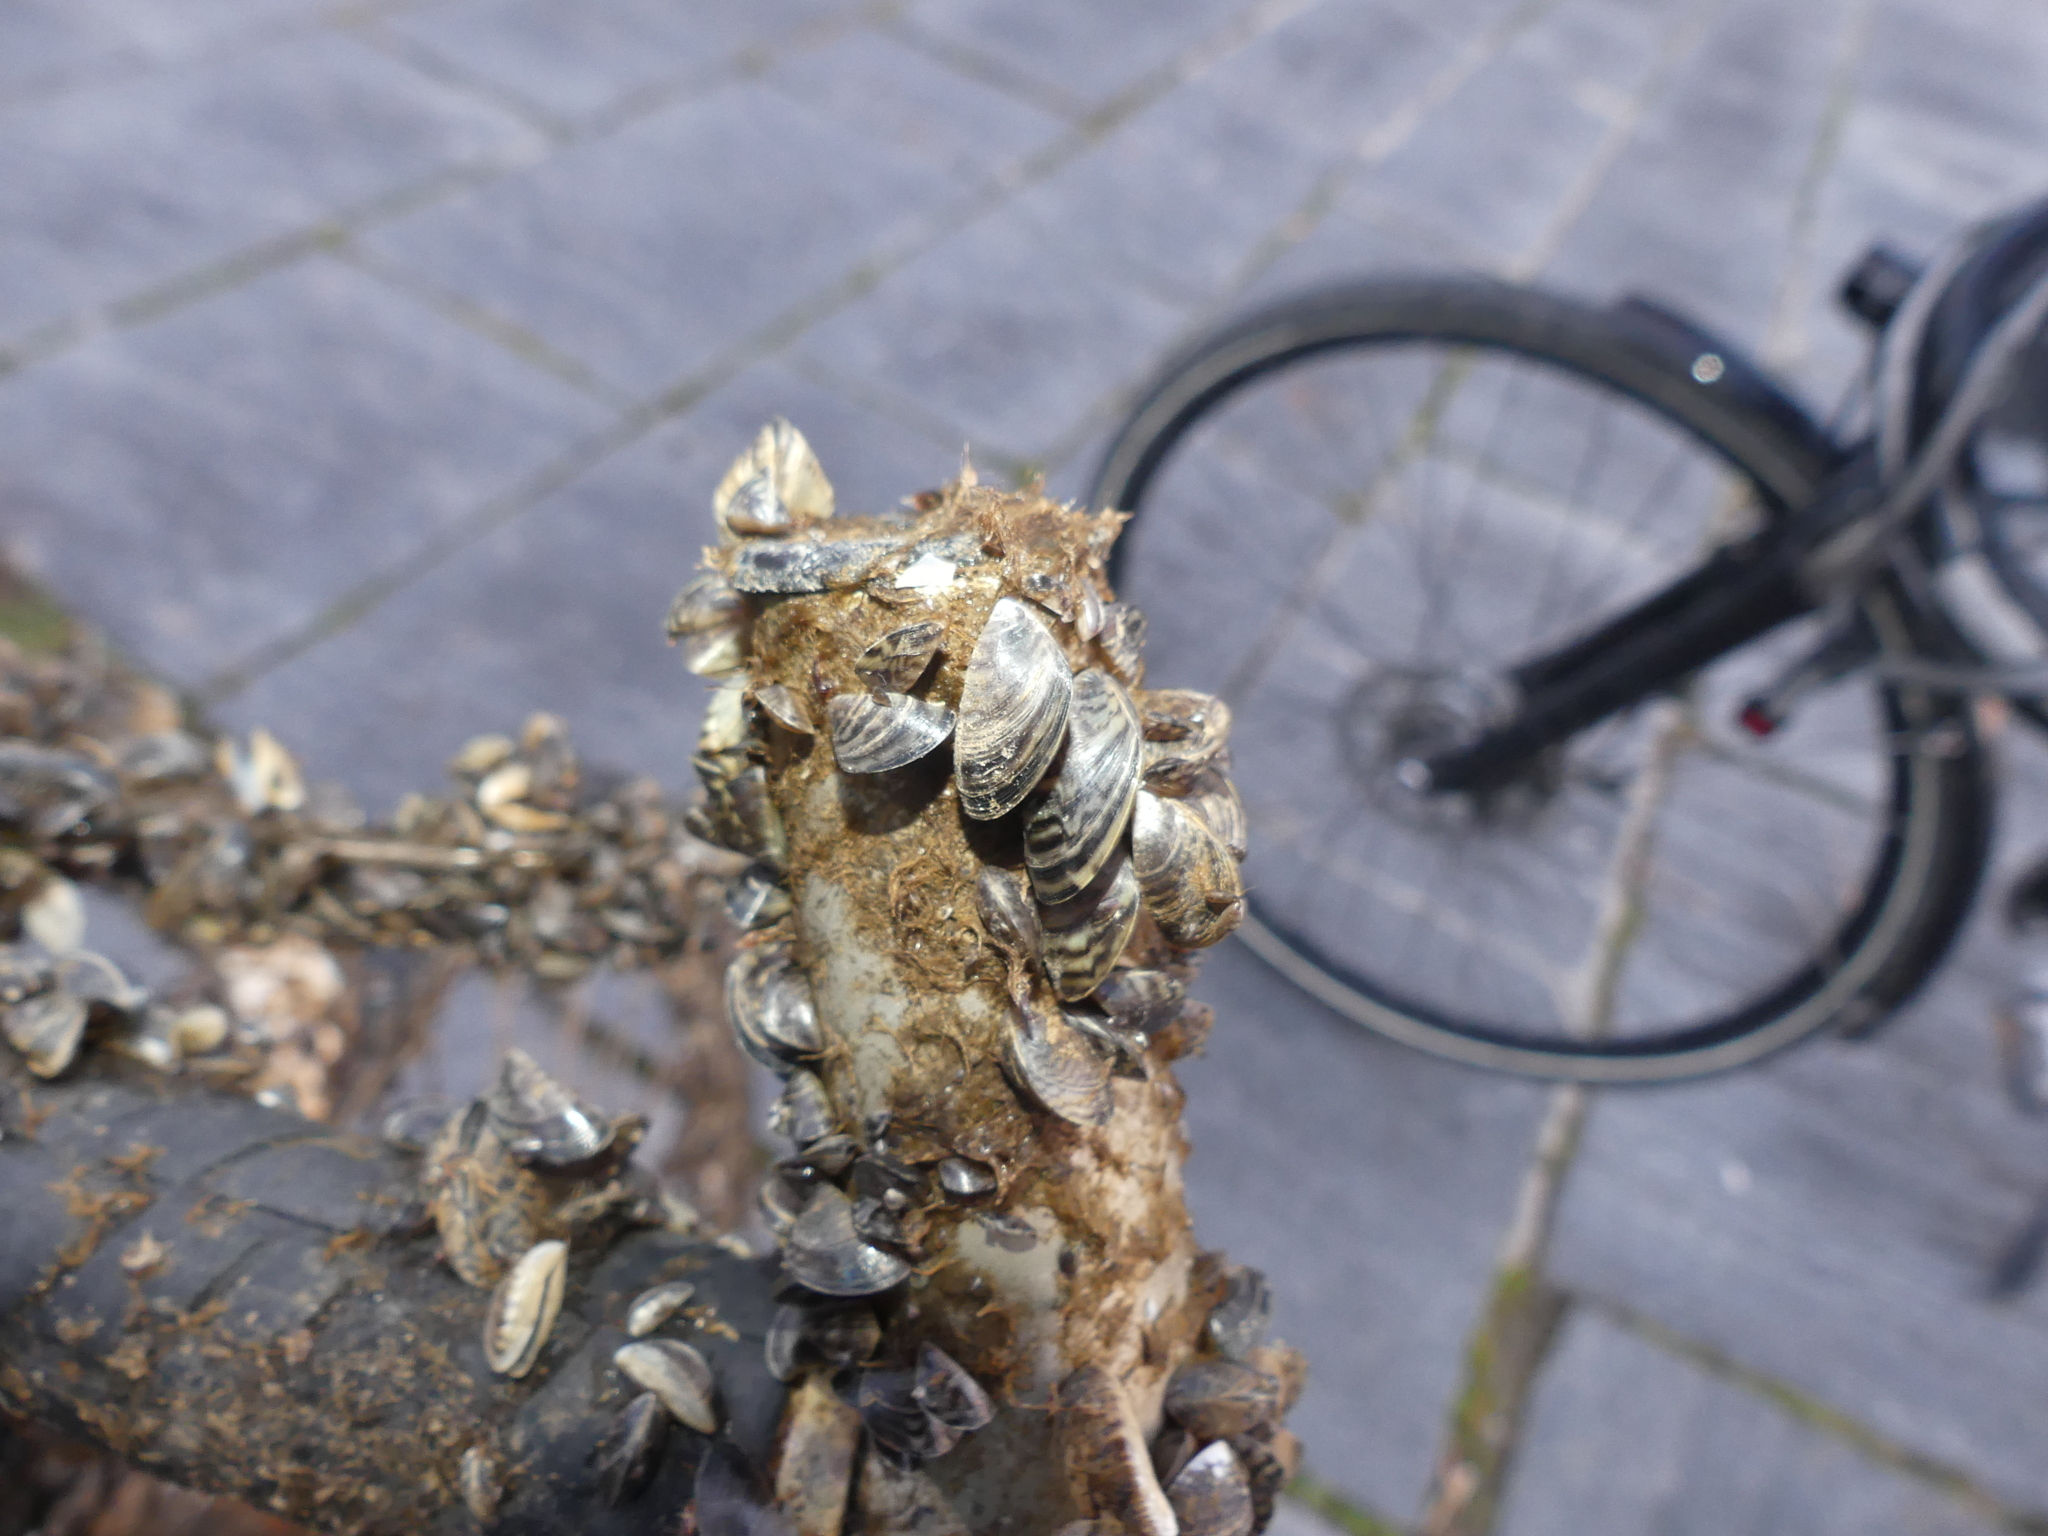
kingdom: Animalia
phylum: Mollusca
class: Bivalvia
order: Myida
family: Dreissenidae
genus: Dreissena
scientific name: Dreissena polymorpha
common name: Zebra mussel
